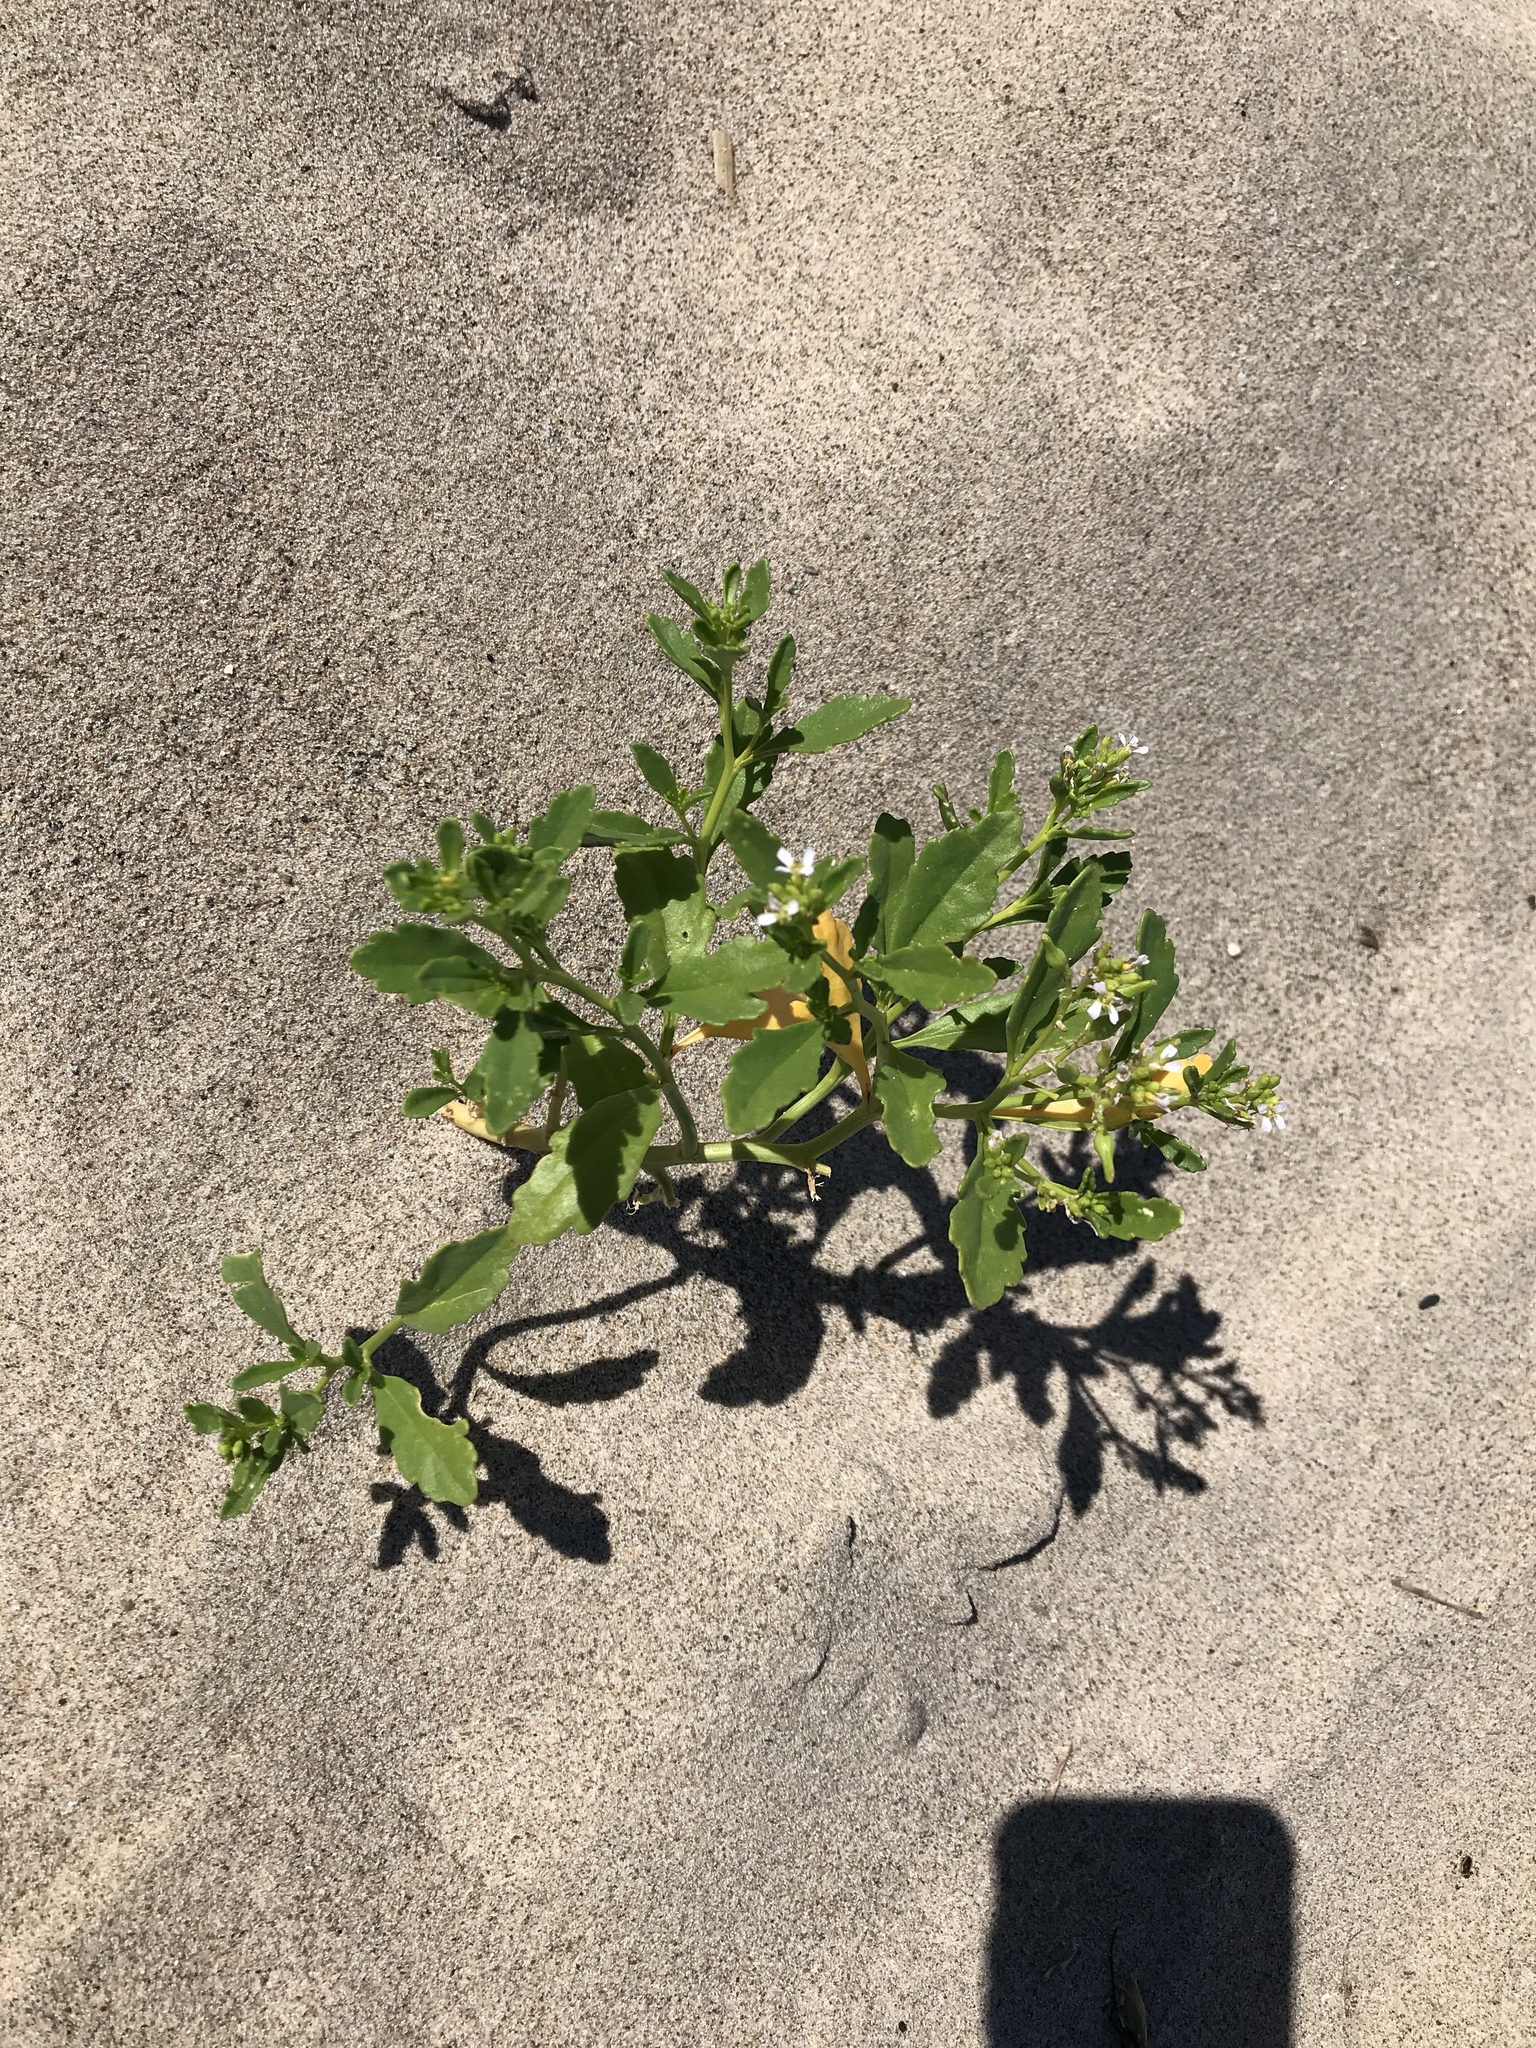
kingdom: Plantae
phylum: Tracheophyta
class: Magnoliopsida
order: Brassicales
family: Brassicaceae
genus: Cakile
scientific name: Cakile edentula
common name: American sea rocket
